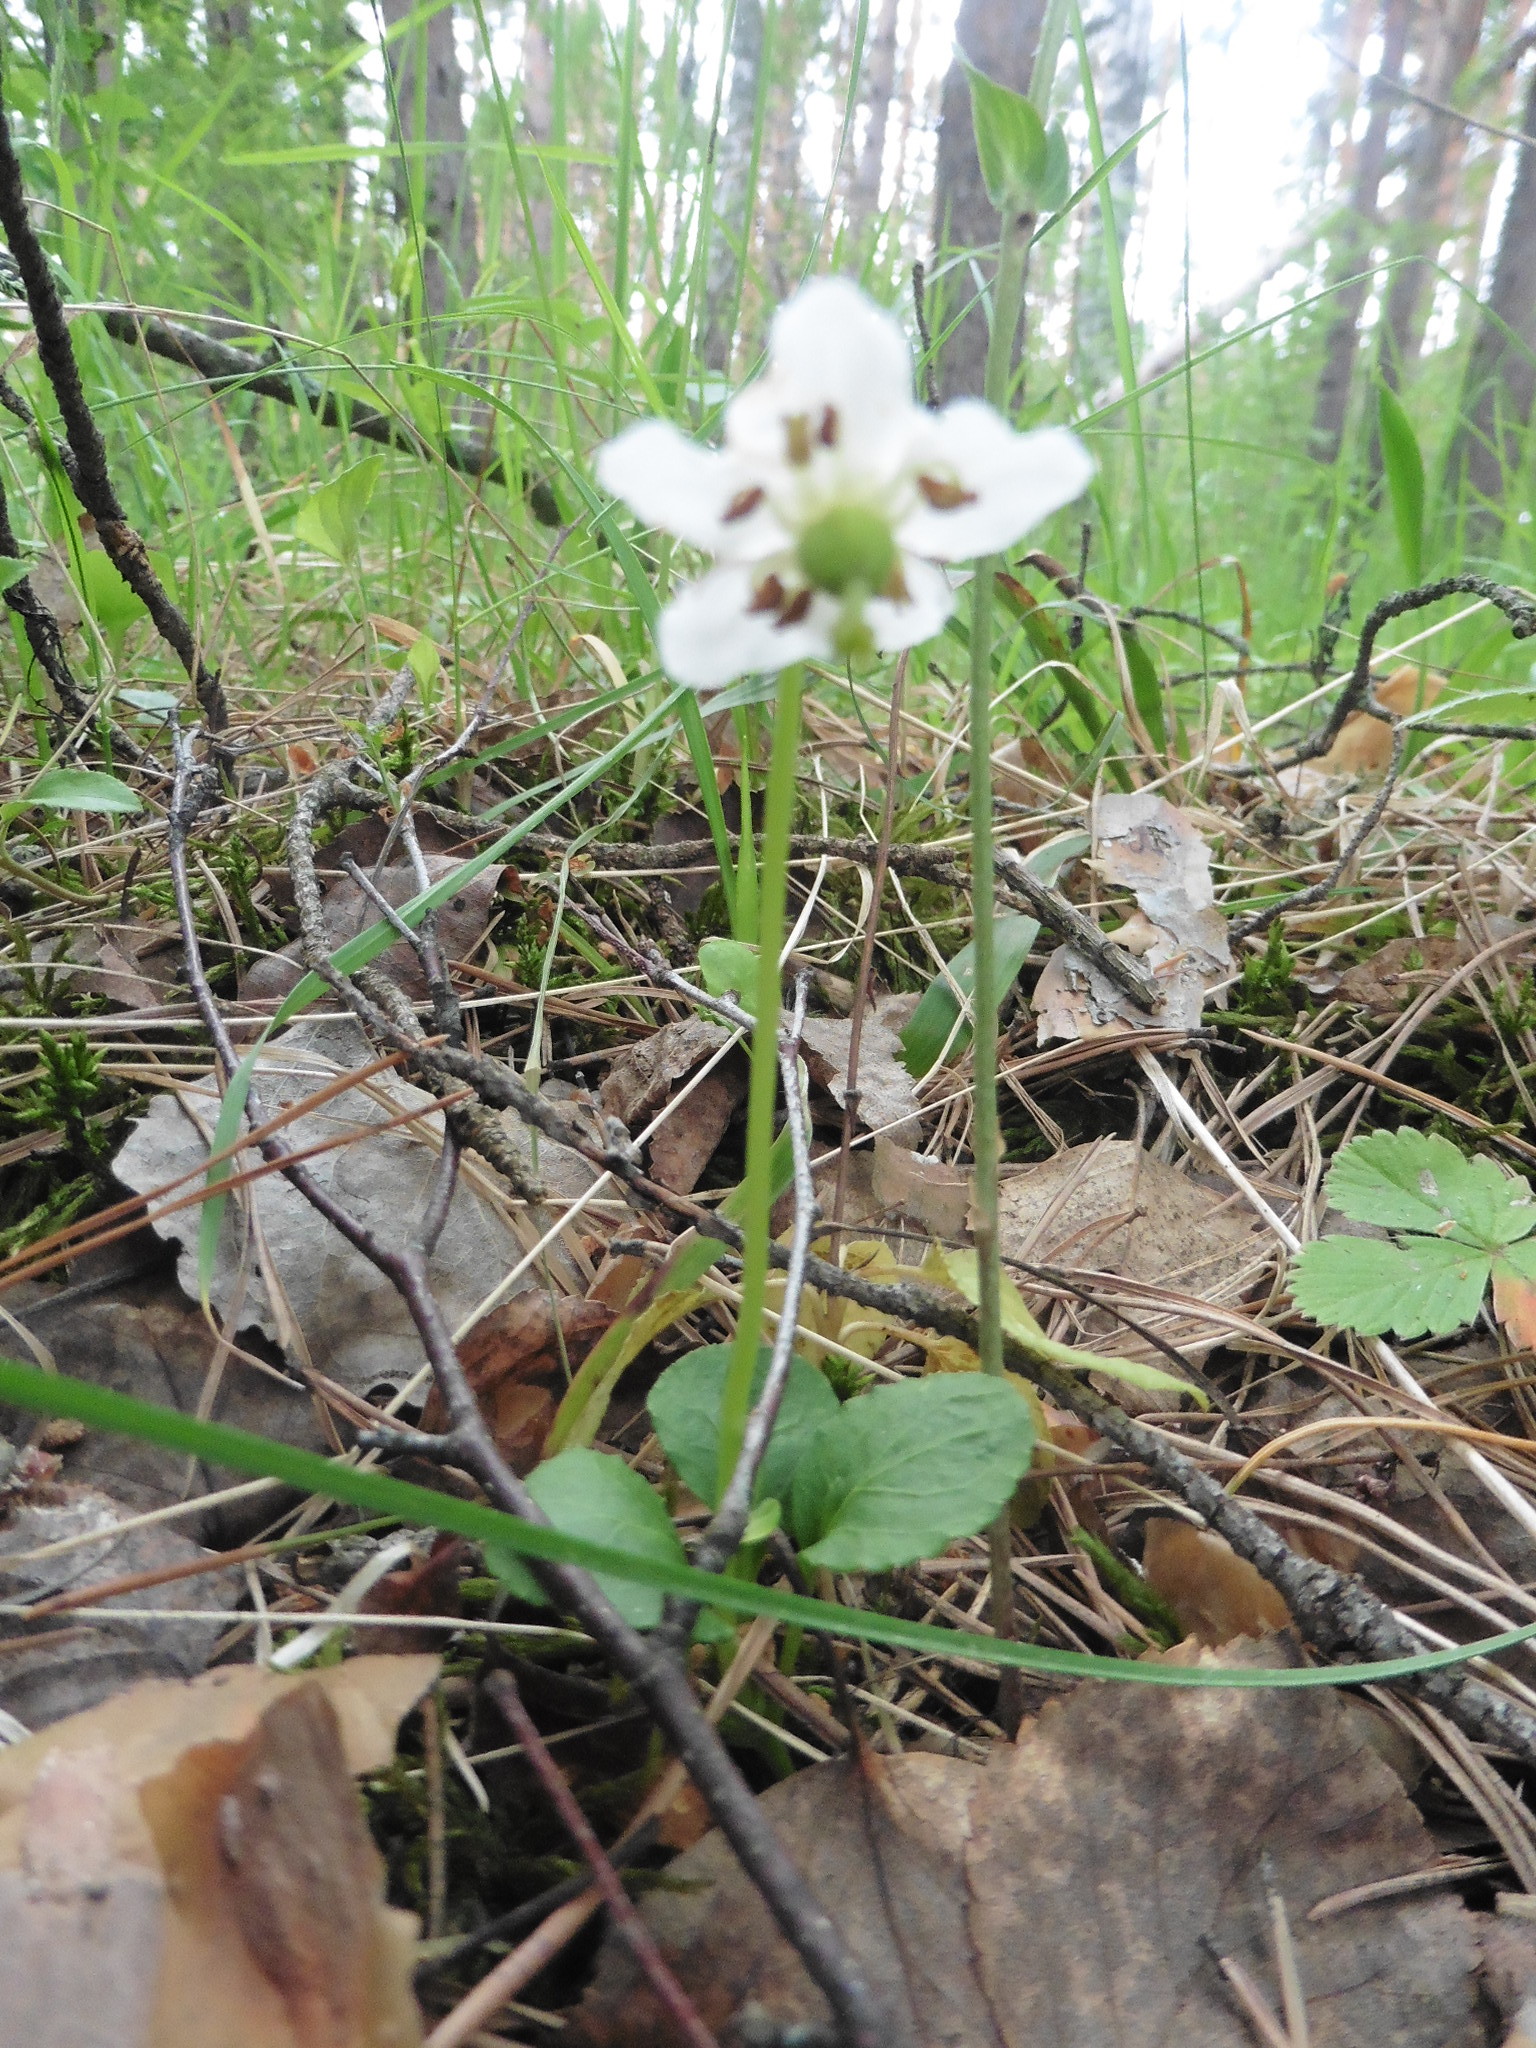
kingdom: Plantae
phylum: Tracheophyta
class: Magnoliopsida
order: Ericales
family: Ericaceae
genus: Moneses
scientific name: Moneses uniflora
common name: One-flowered wintergreen
